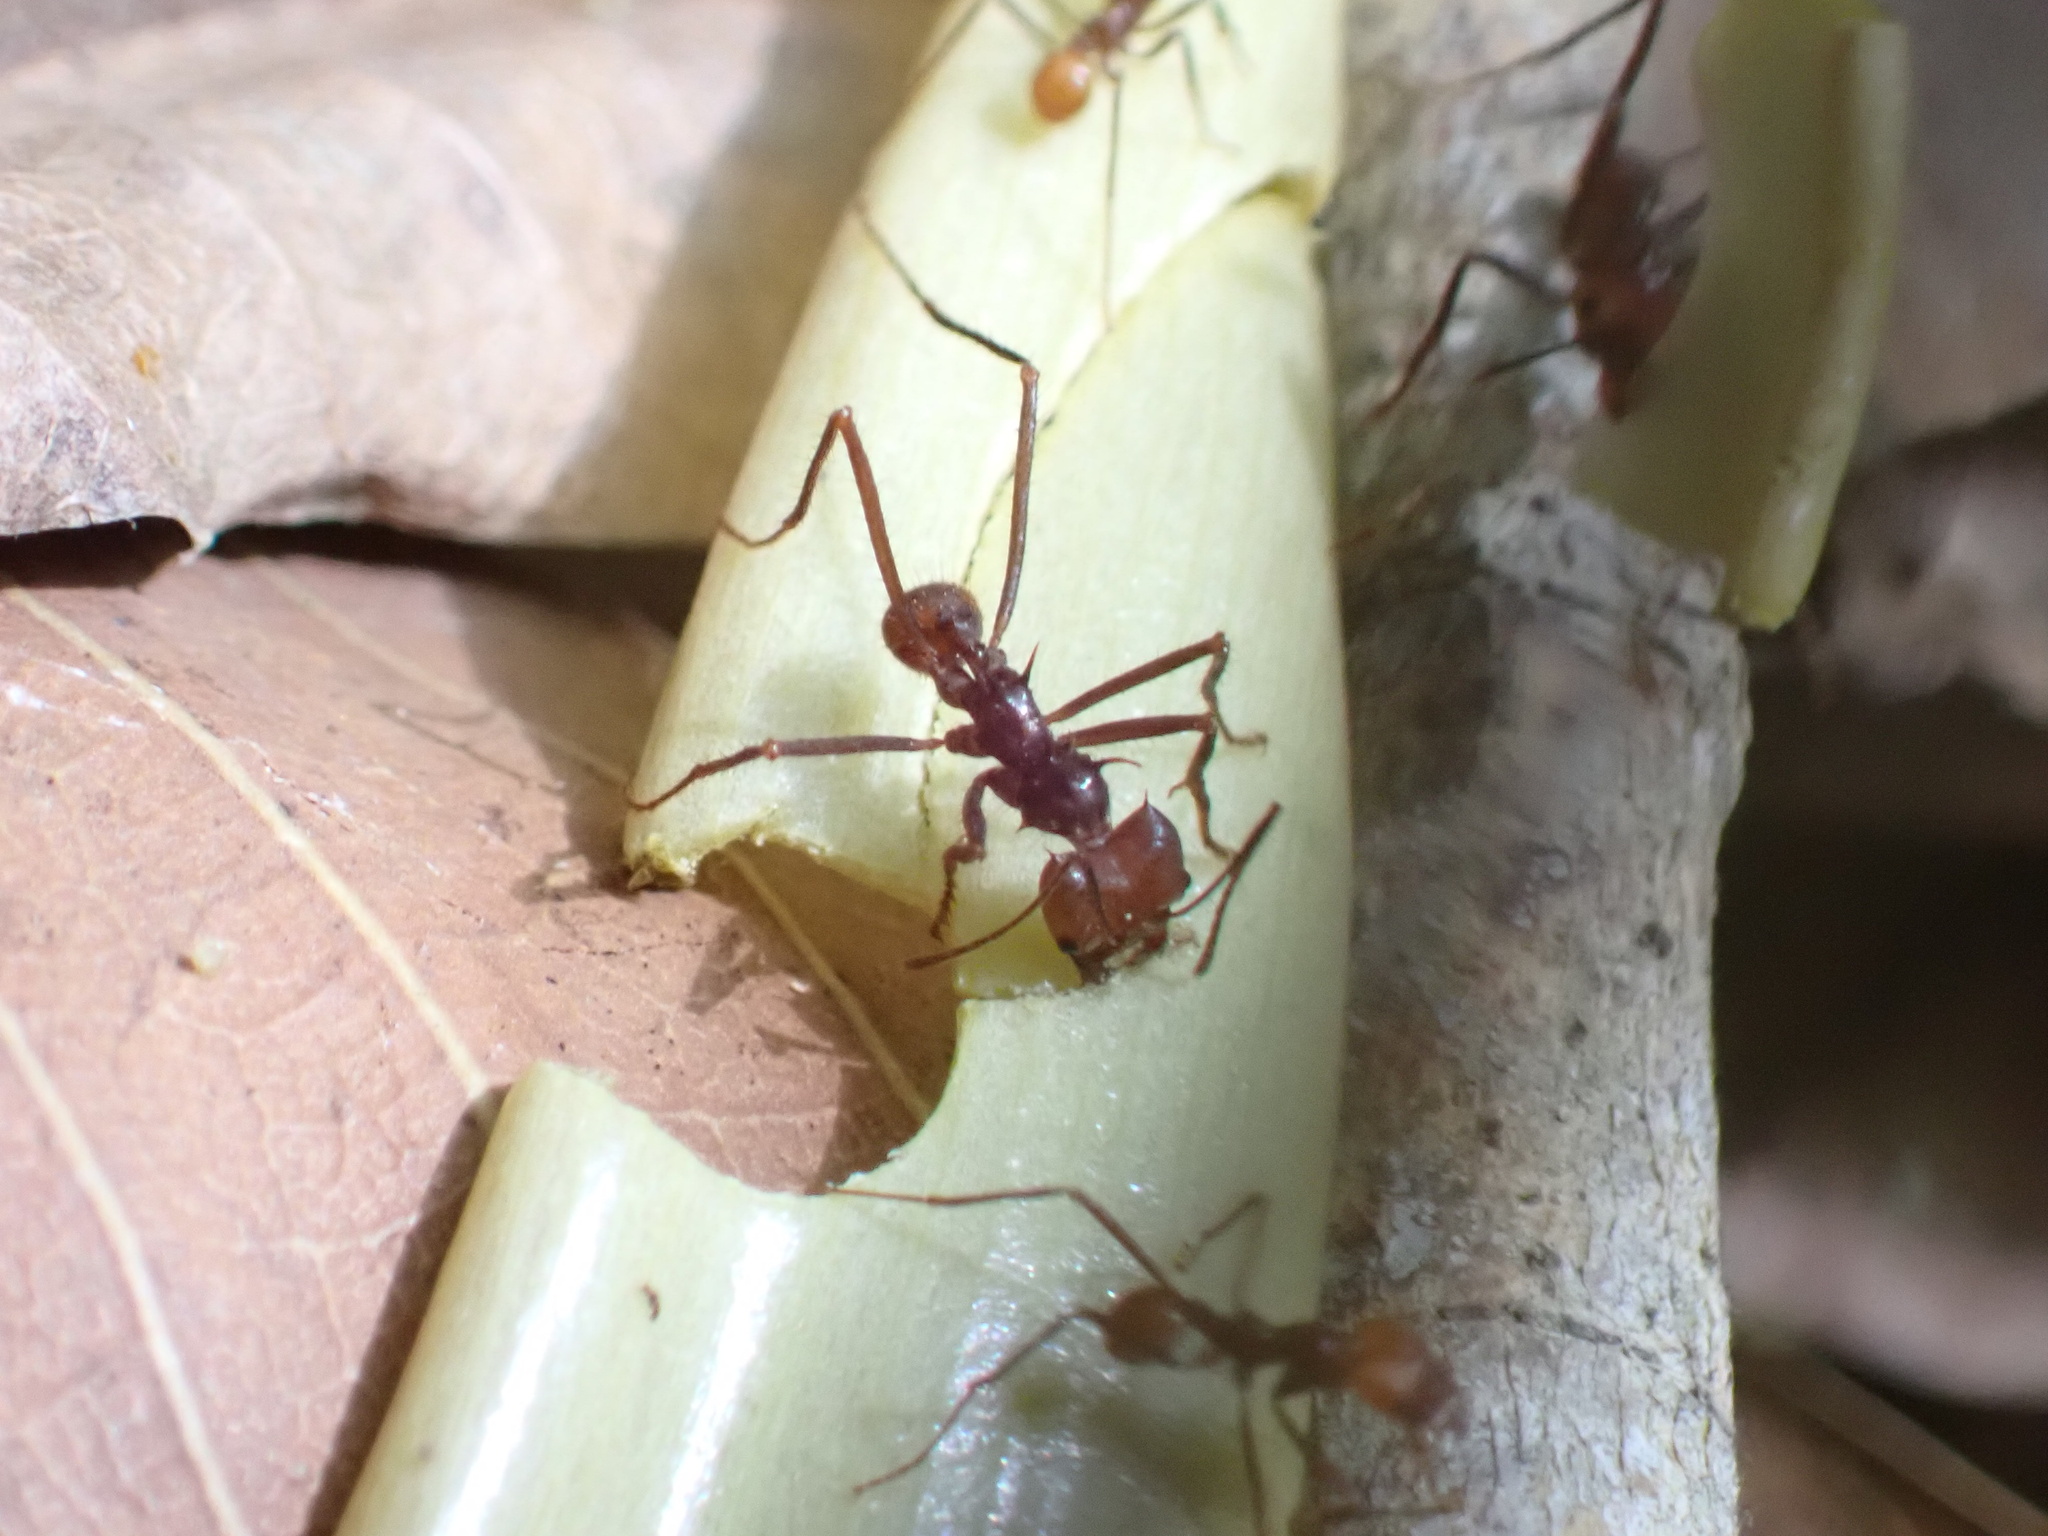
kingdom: Animalia
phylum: Arthropoda
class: Insecta
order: Hymenoptera
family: Formicidae
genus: Atta
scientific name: Atta cephalotes
